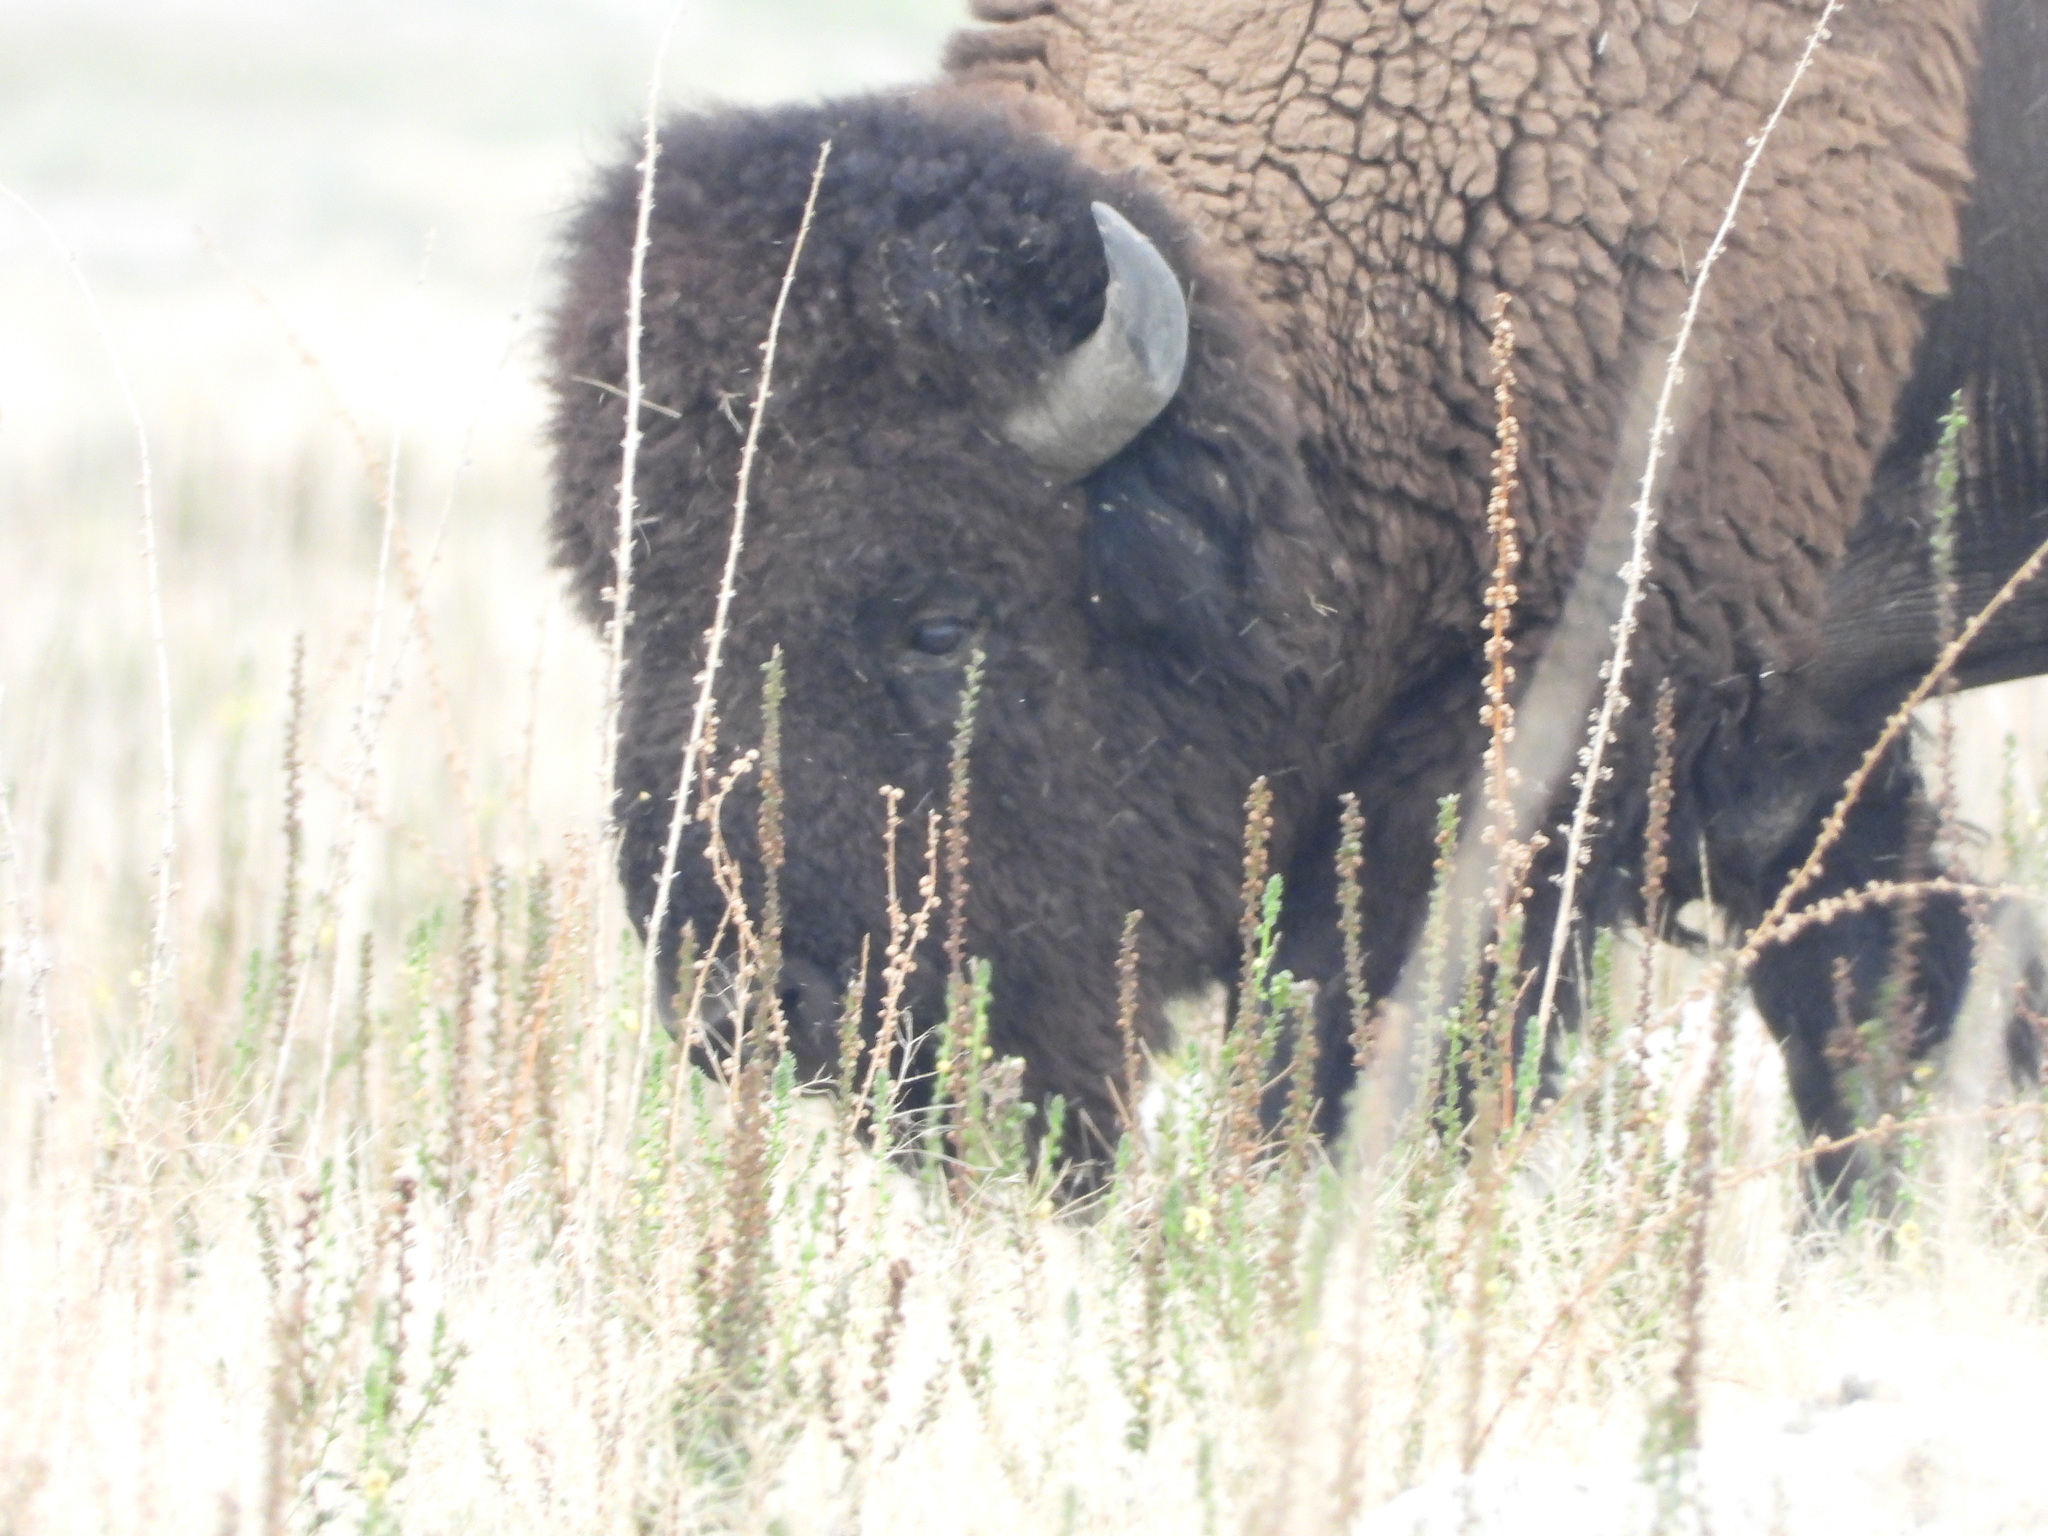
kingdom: Animalia
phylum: Chordata
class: Mammalia
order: Artiodactyla
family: Bovidae
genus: Bison
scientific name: Bison bison
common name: American bison
